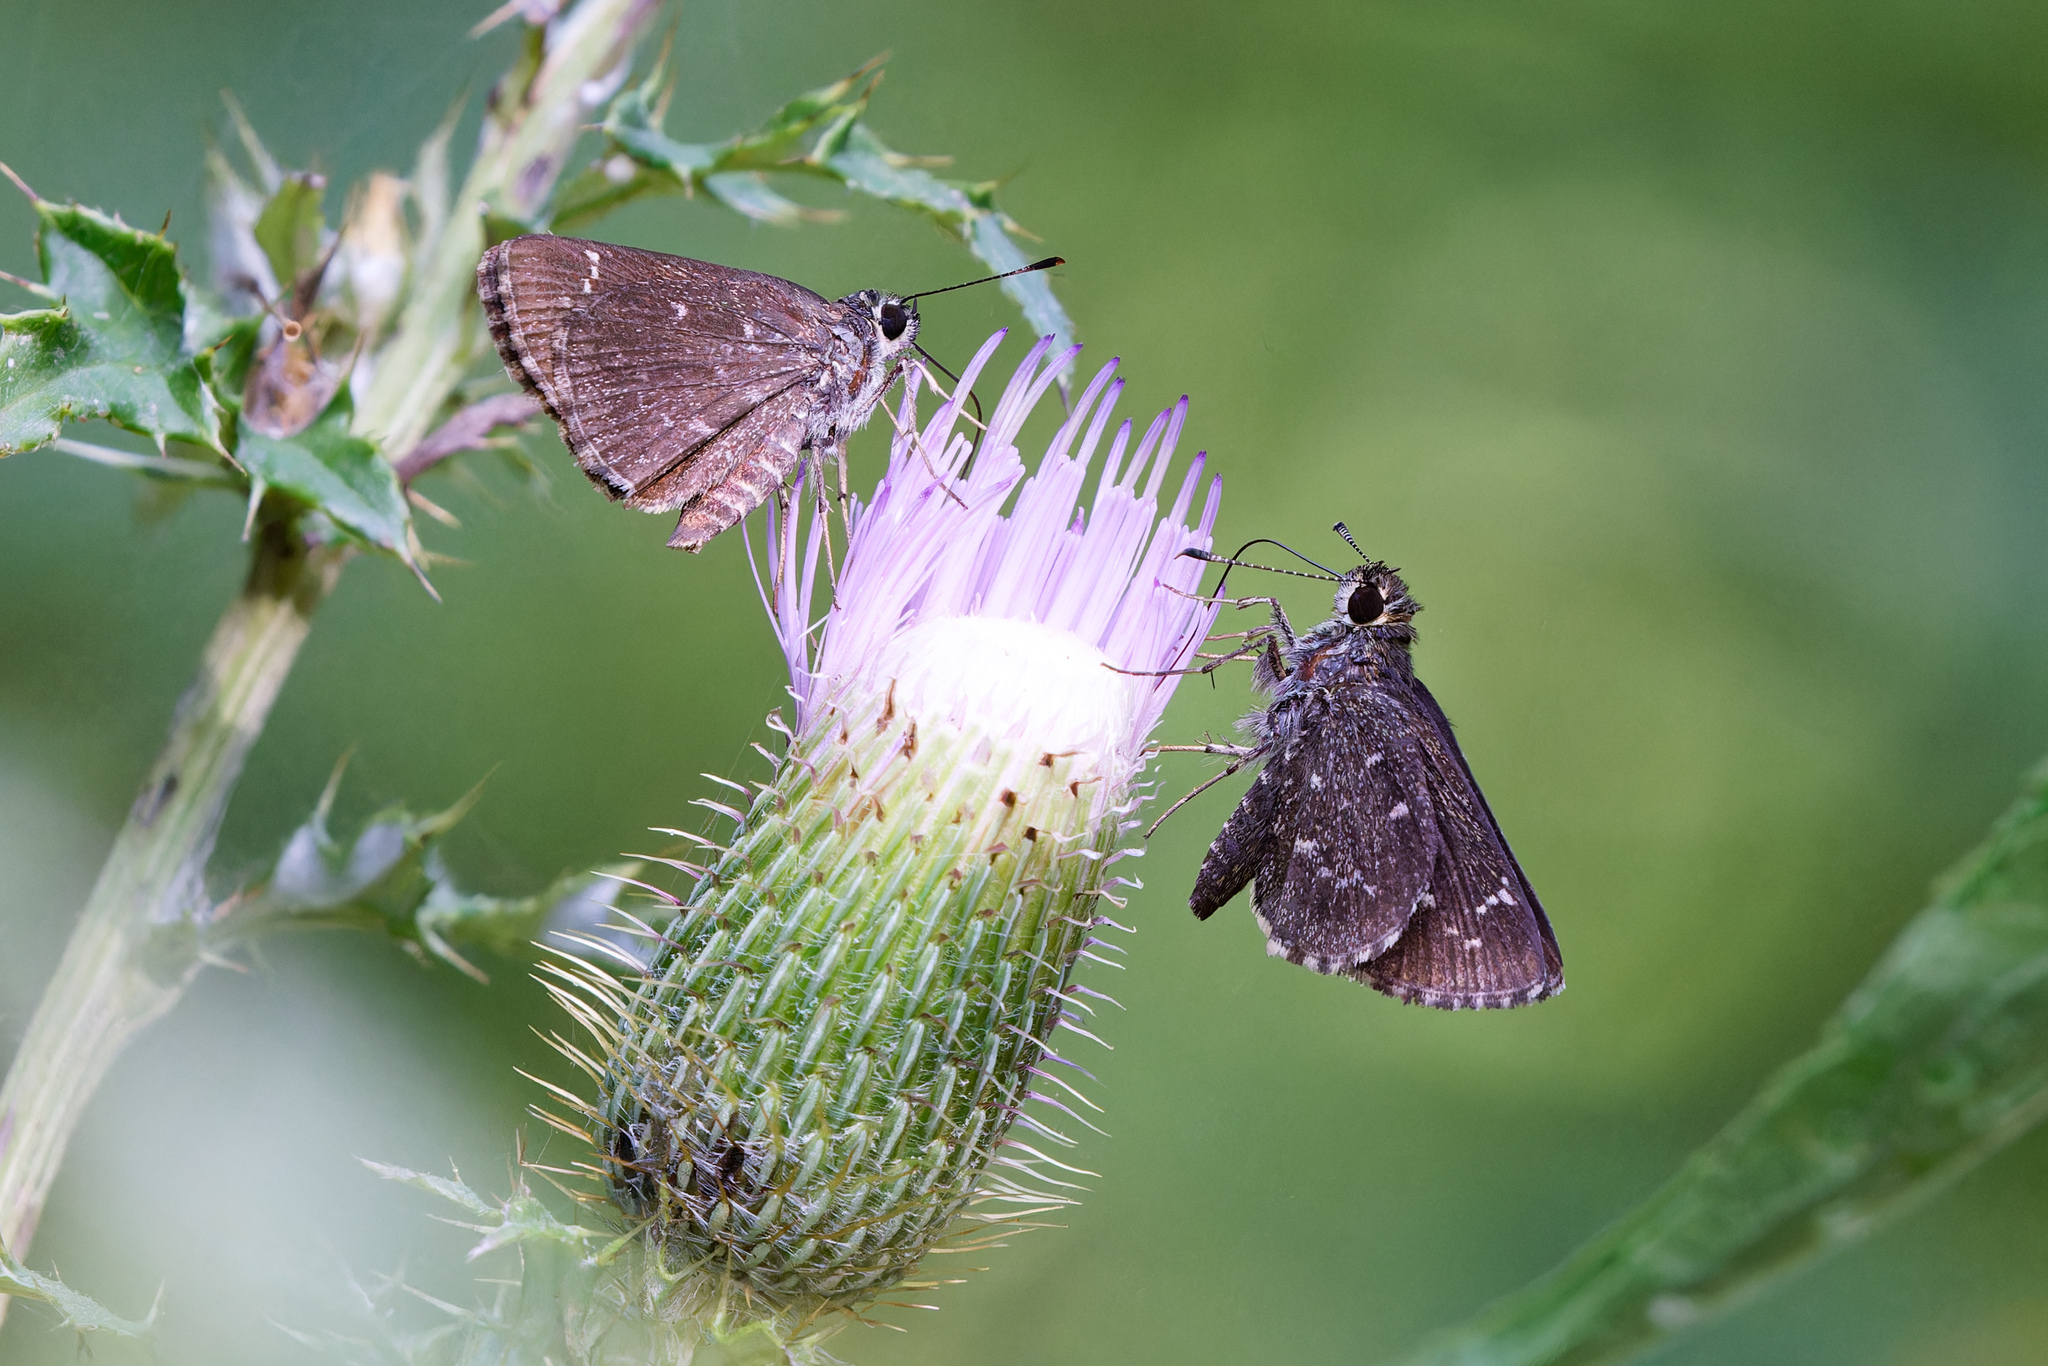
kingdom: Animalia
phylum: Arthropoda
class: Insecta
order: Lepidoptera
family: Hesperiidae
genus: Mastor
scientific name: Mastor celia
